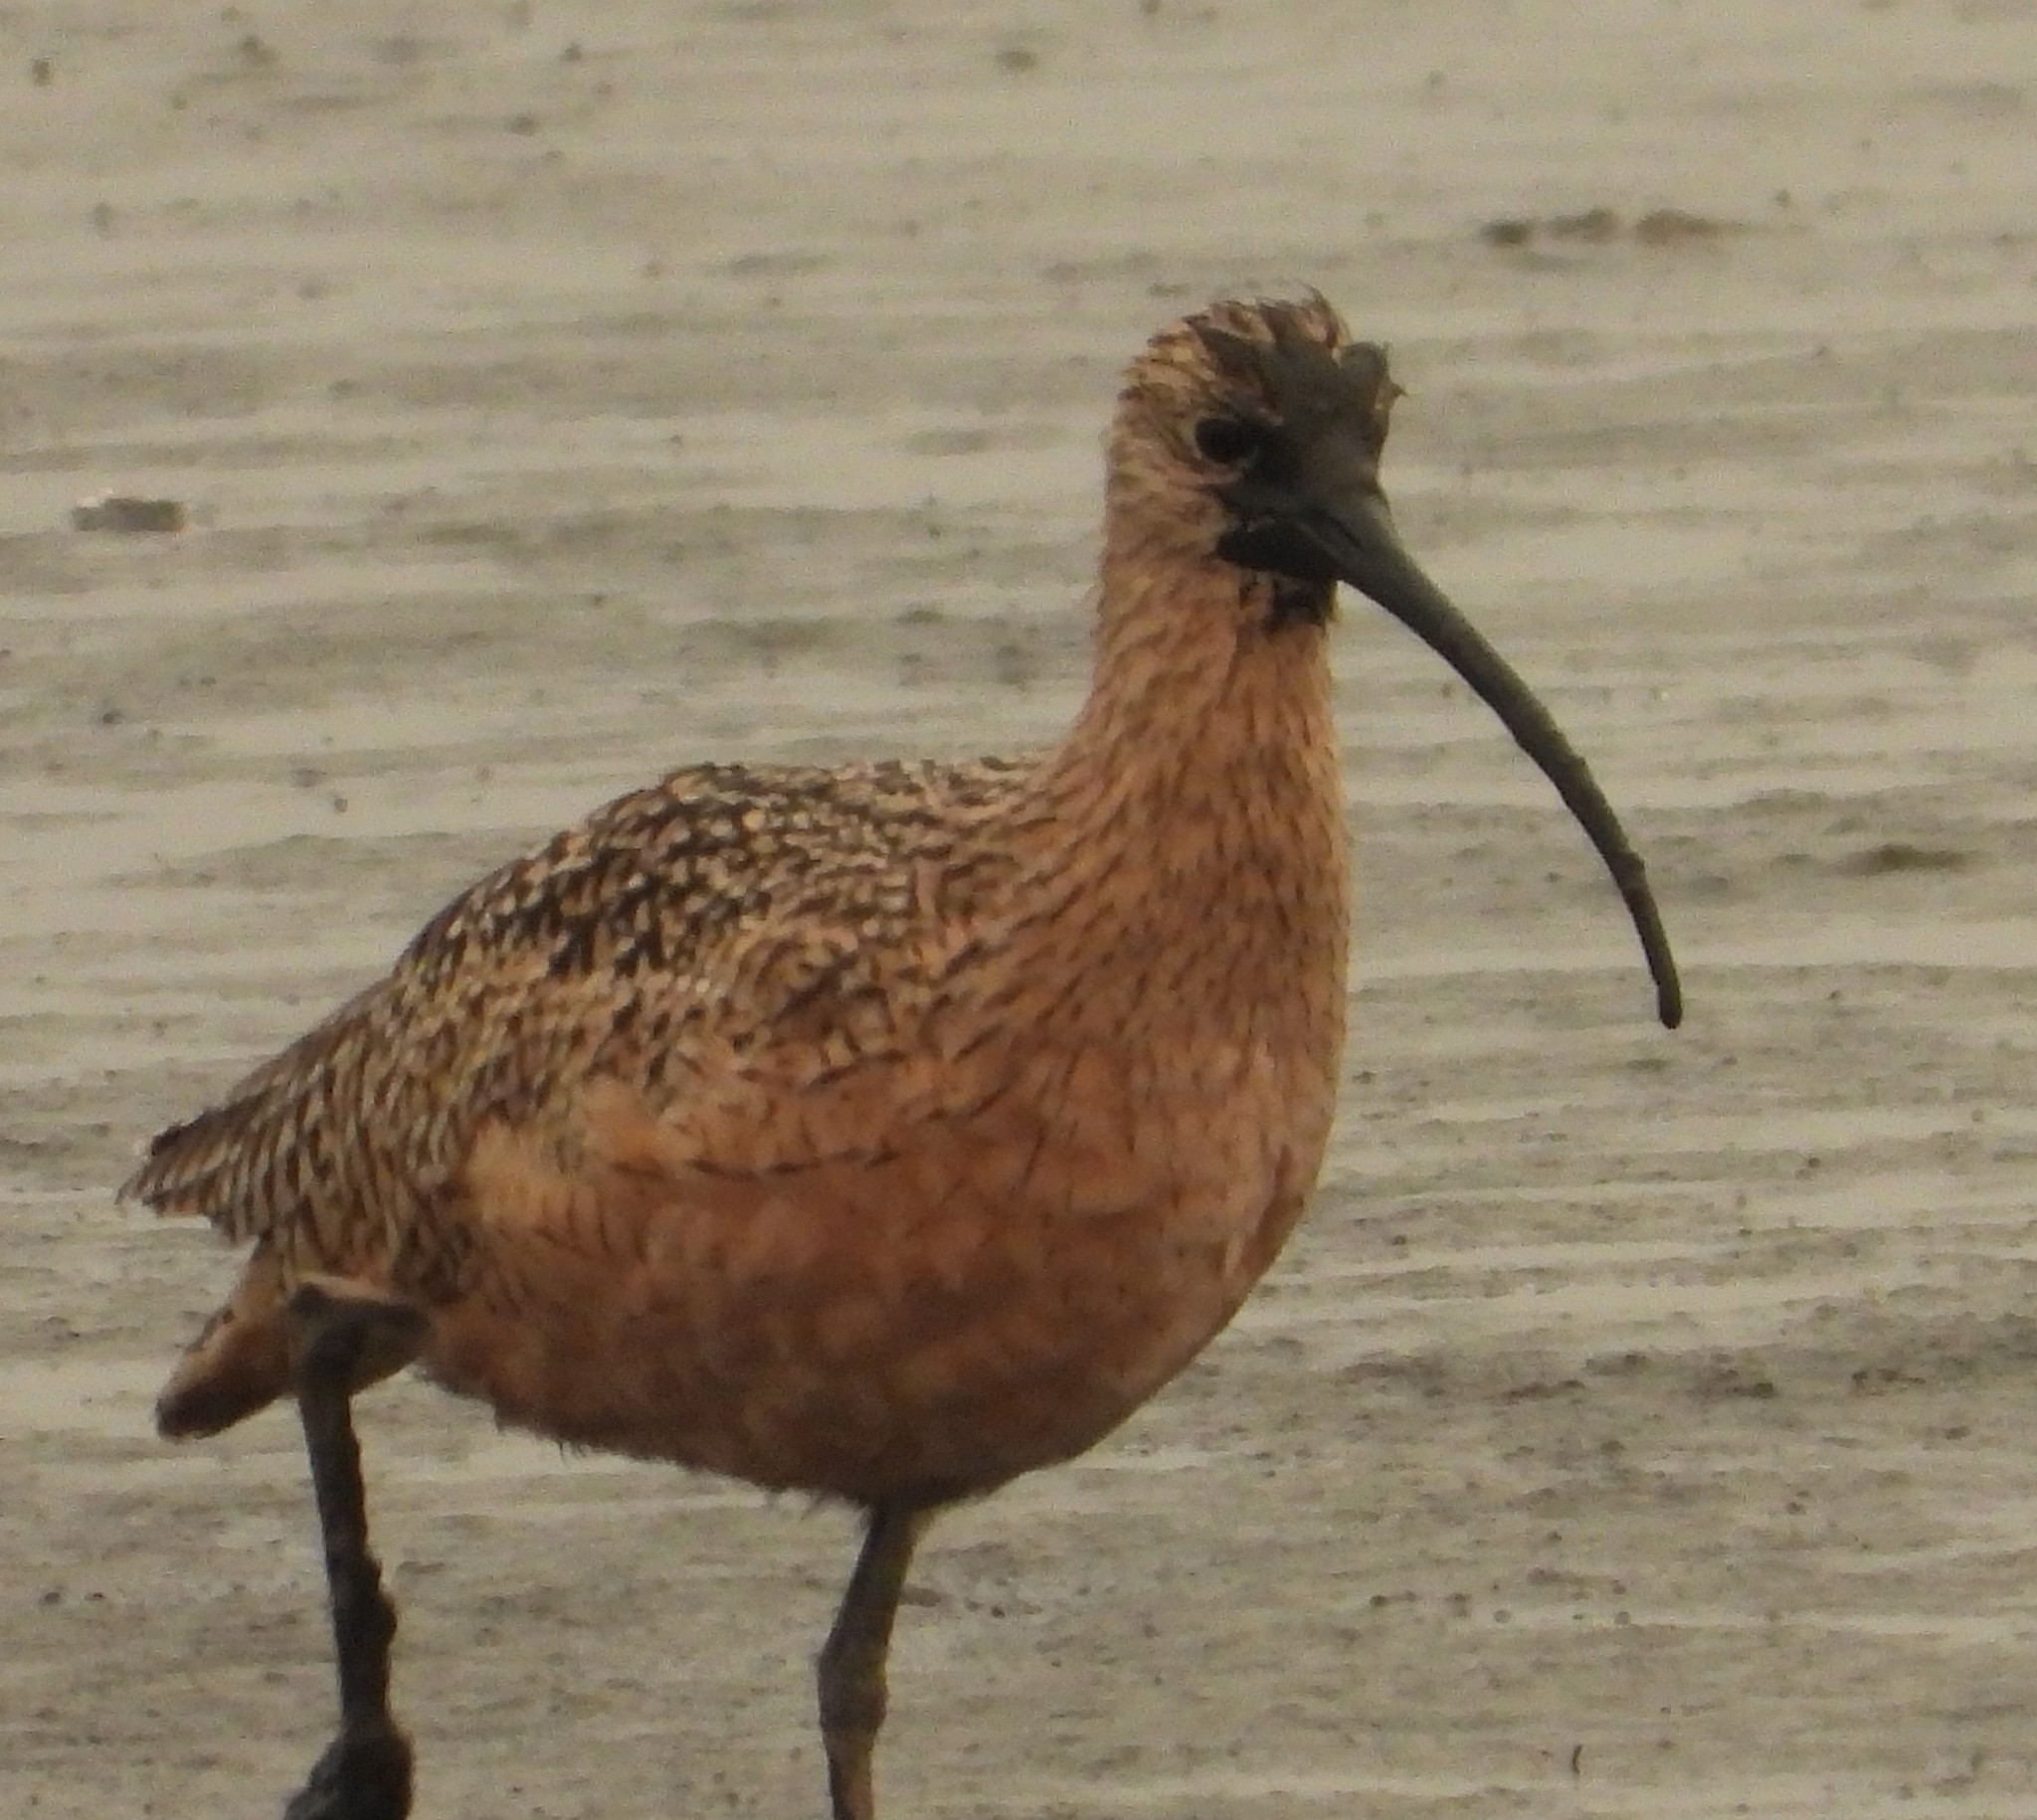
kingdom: Animalia
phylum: Chordata
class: Aves
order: Charadriiformes
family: Scolopacidae
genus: Numenius
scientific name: Numenius americanus
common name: Long-billed curlew
